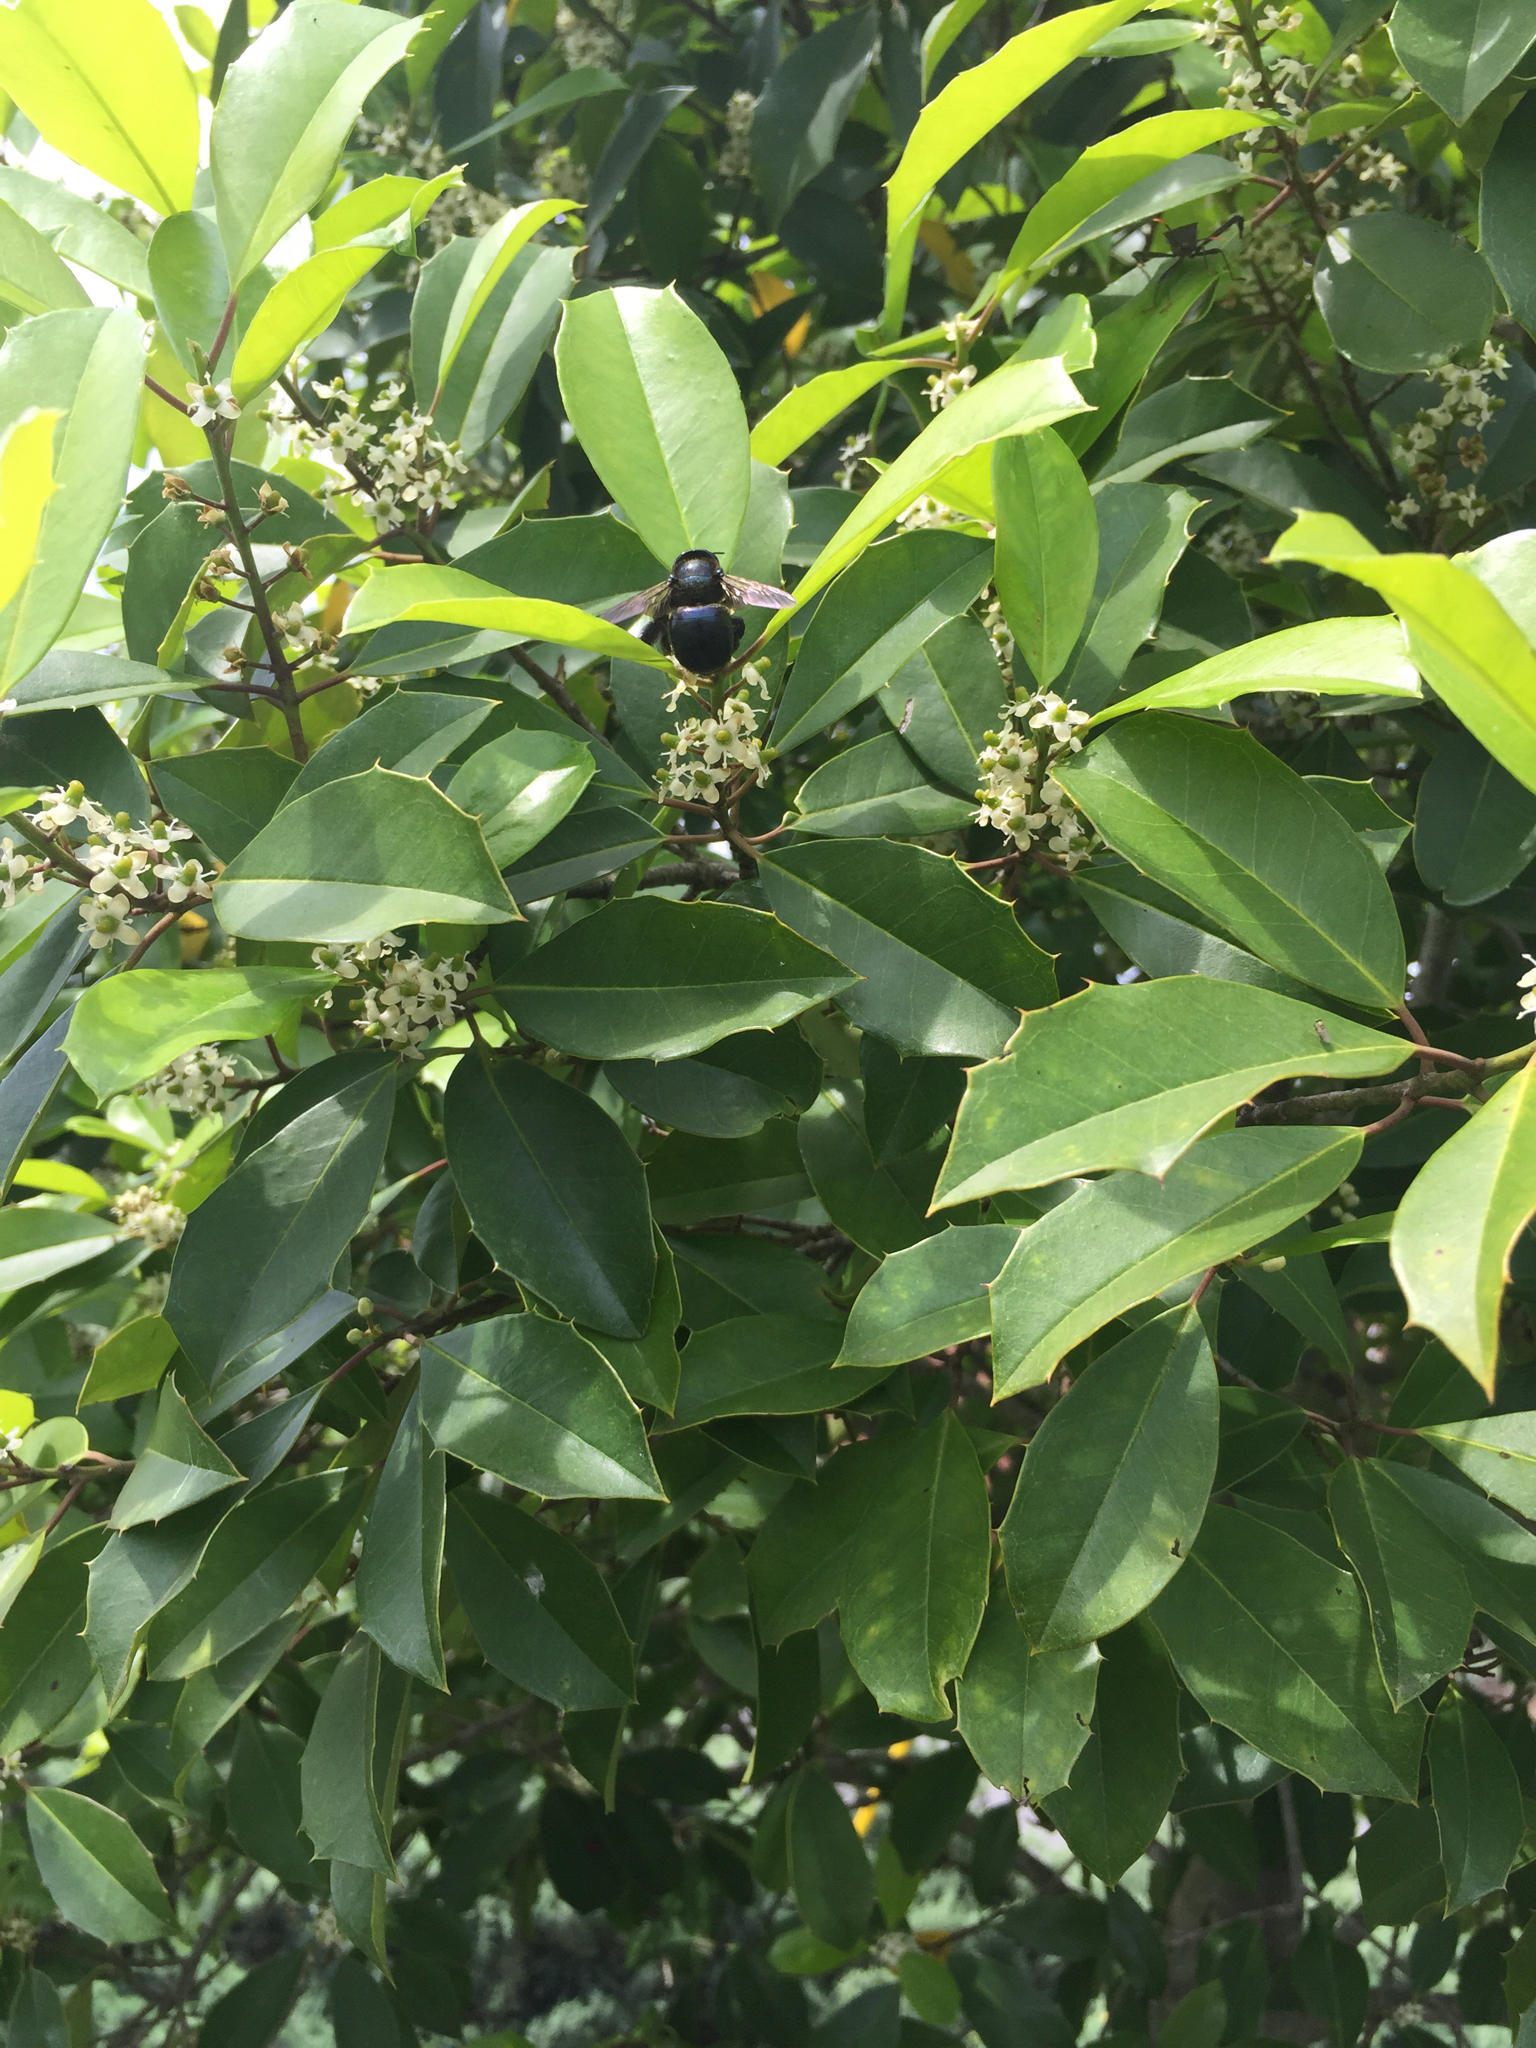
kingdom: Animalia
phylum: Arthropoda
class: Insecta
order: Hymenoptera
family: Apidae
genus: Xylocopa
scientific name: Xylocopa micans
